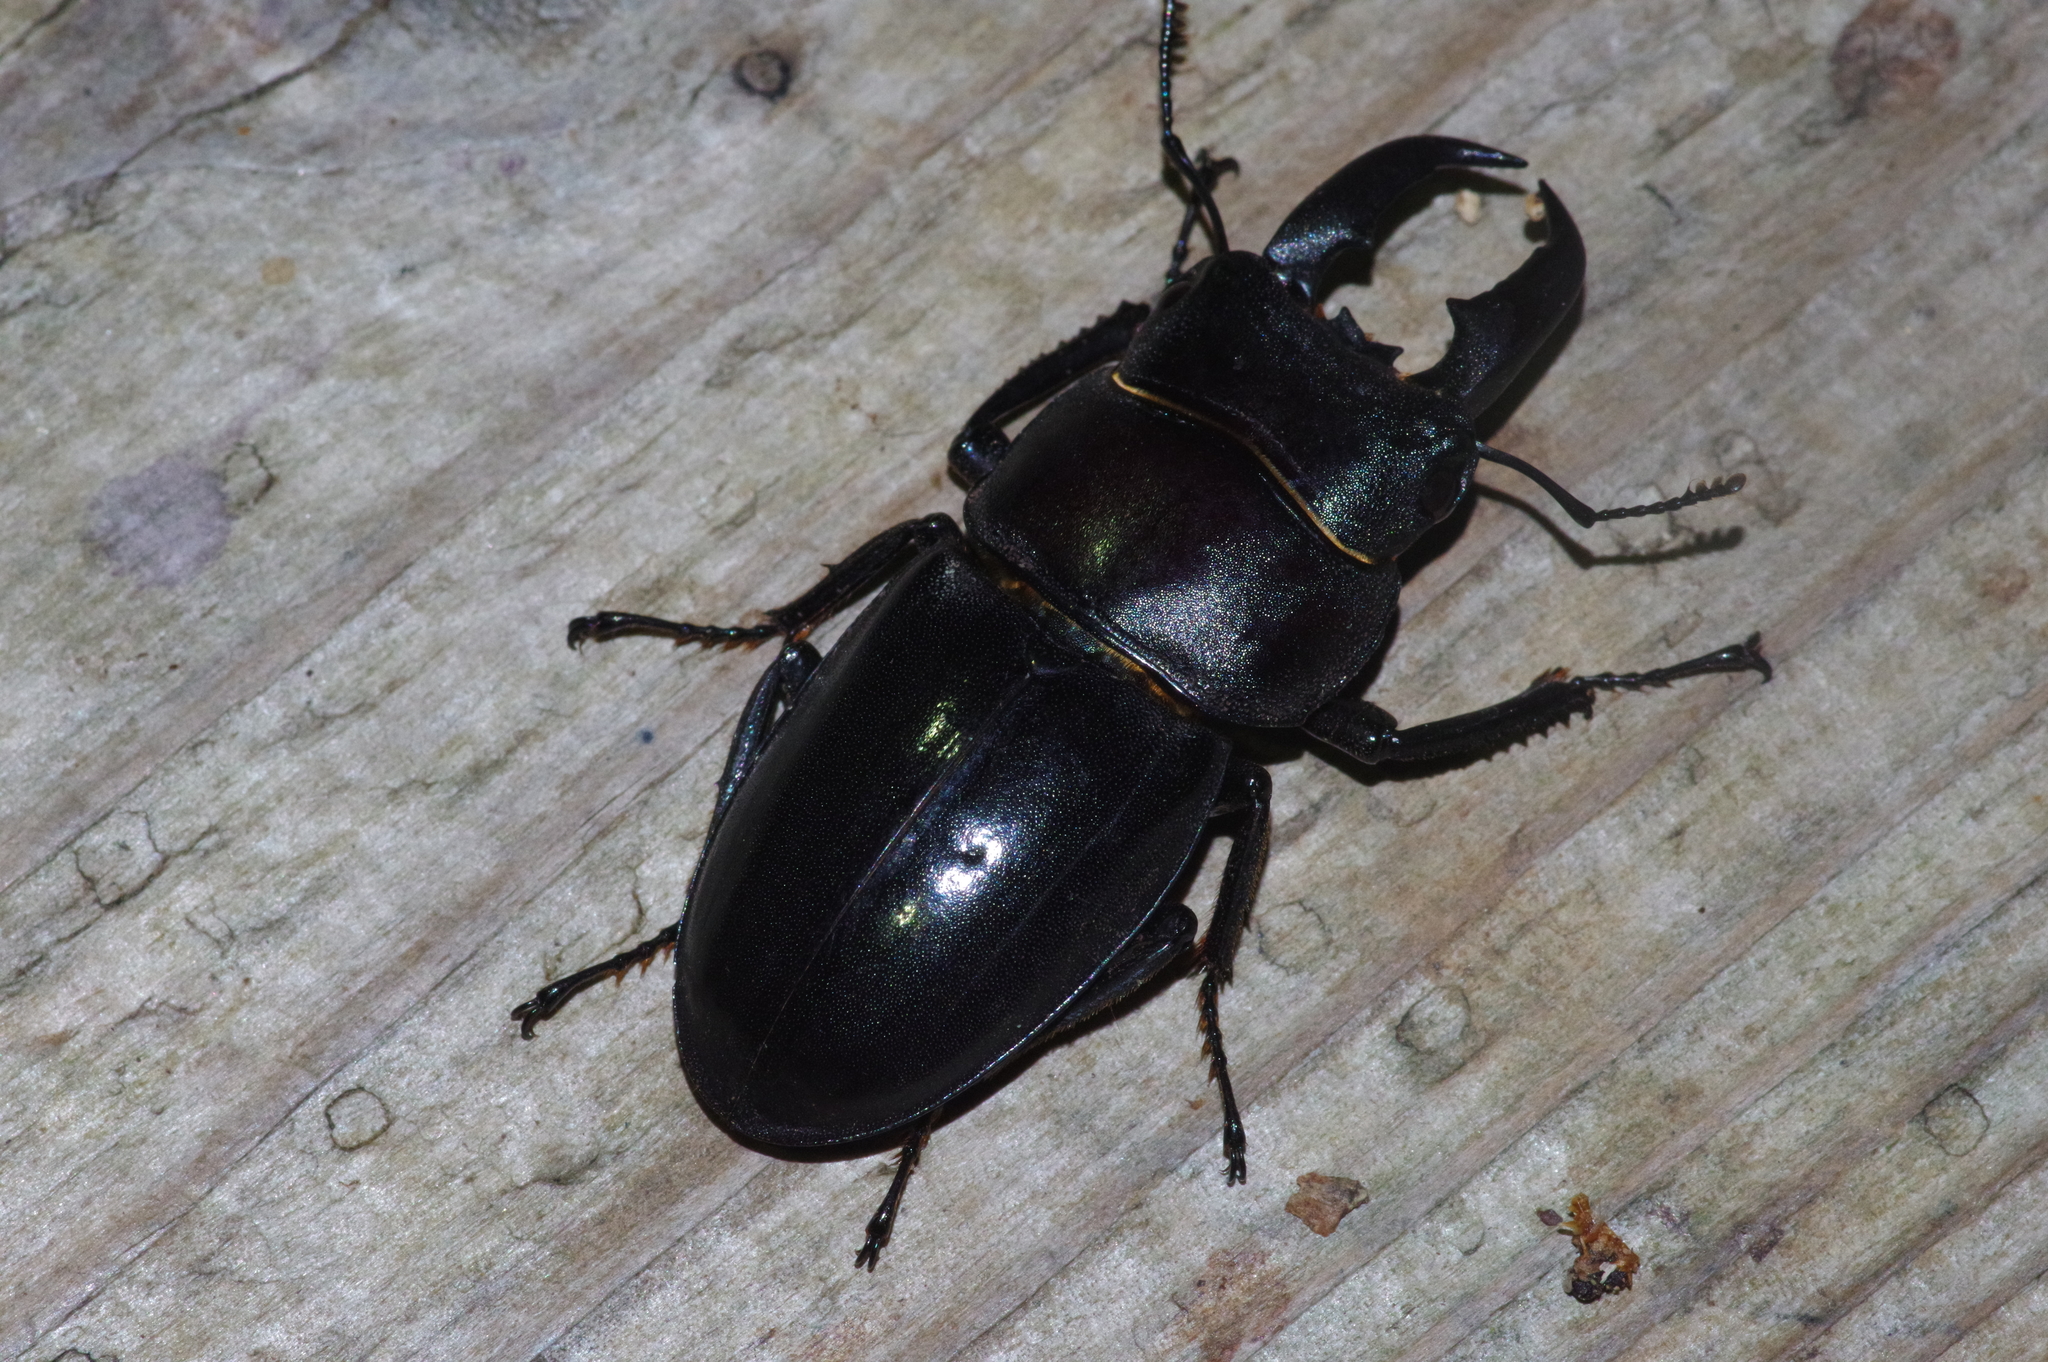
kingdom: Animalia
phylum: Arthropoda
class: Insecta
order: Coleoptera
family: Lucanidae
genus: Serrognathus
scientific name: Serrognathus titanus
